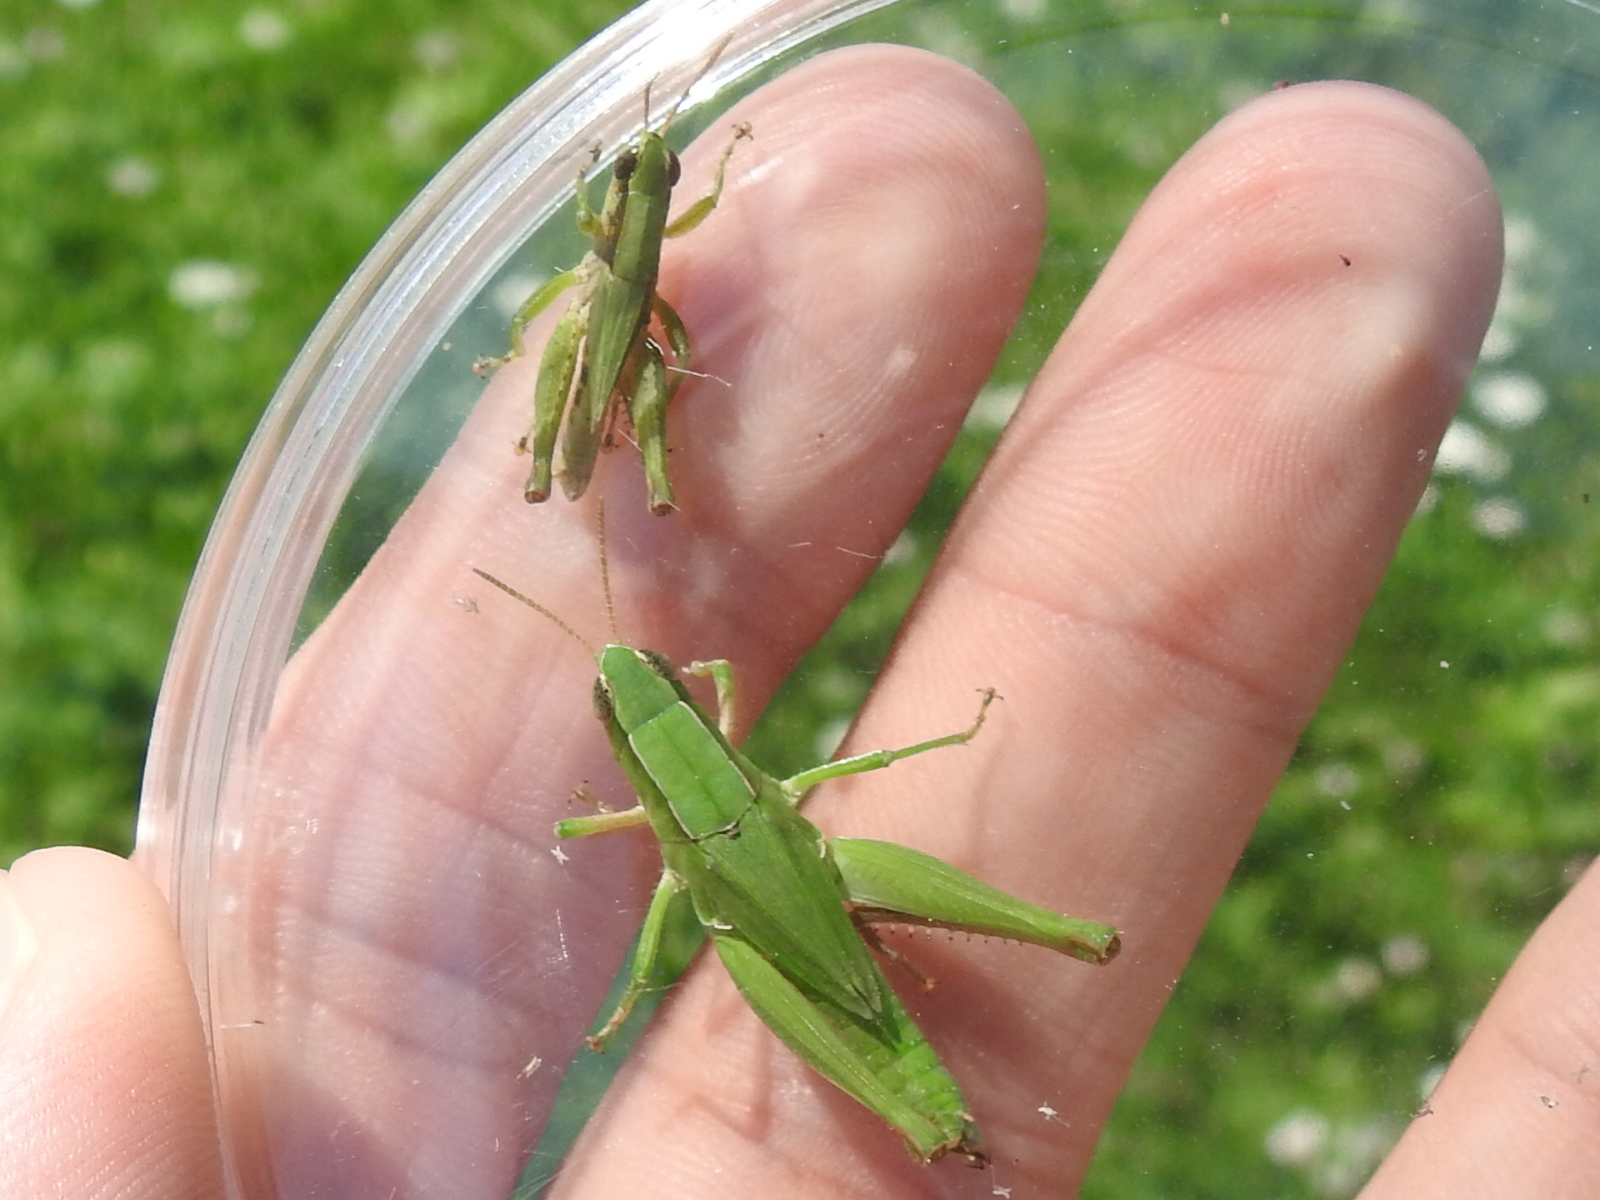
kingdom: Animalia
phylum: Arthropoda
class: Insecta
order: Orthoptera
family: Acrididae
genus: Dichromorpha
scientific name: Dichromorpha viridis
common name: Short-winged green grasshopper
